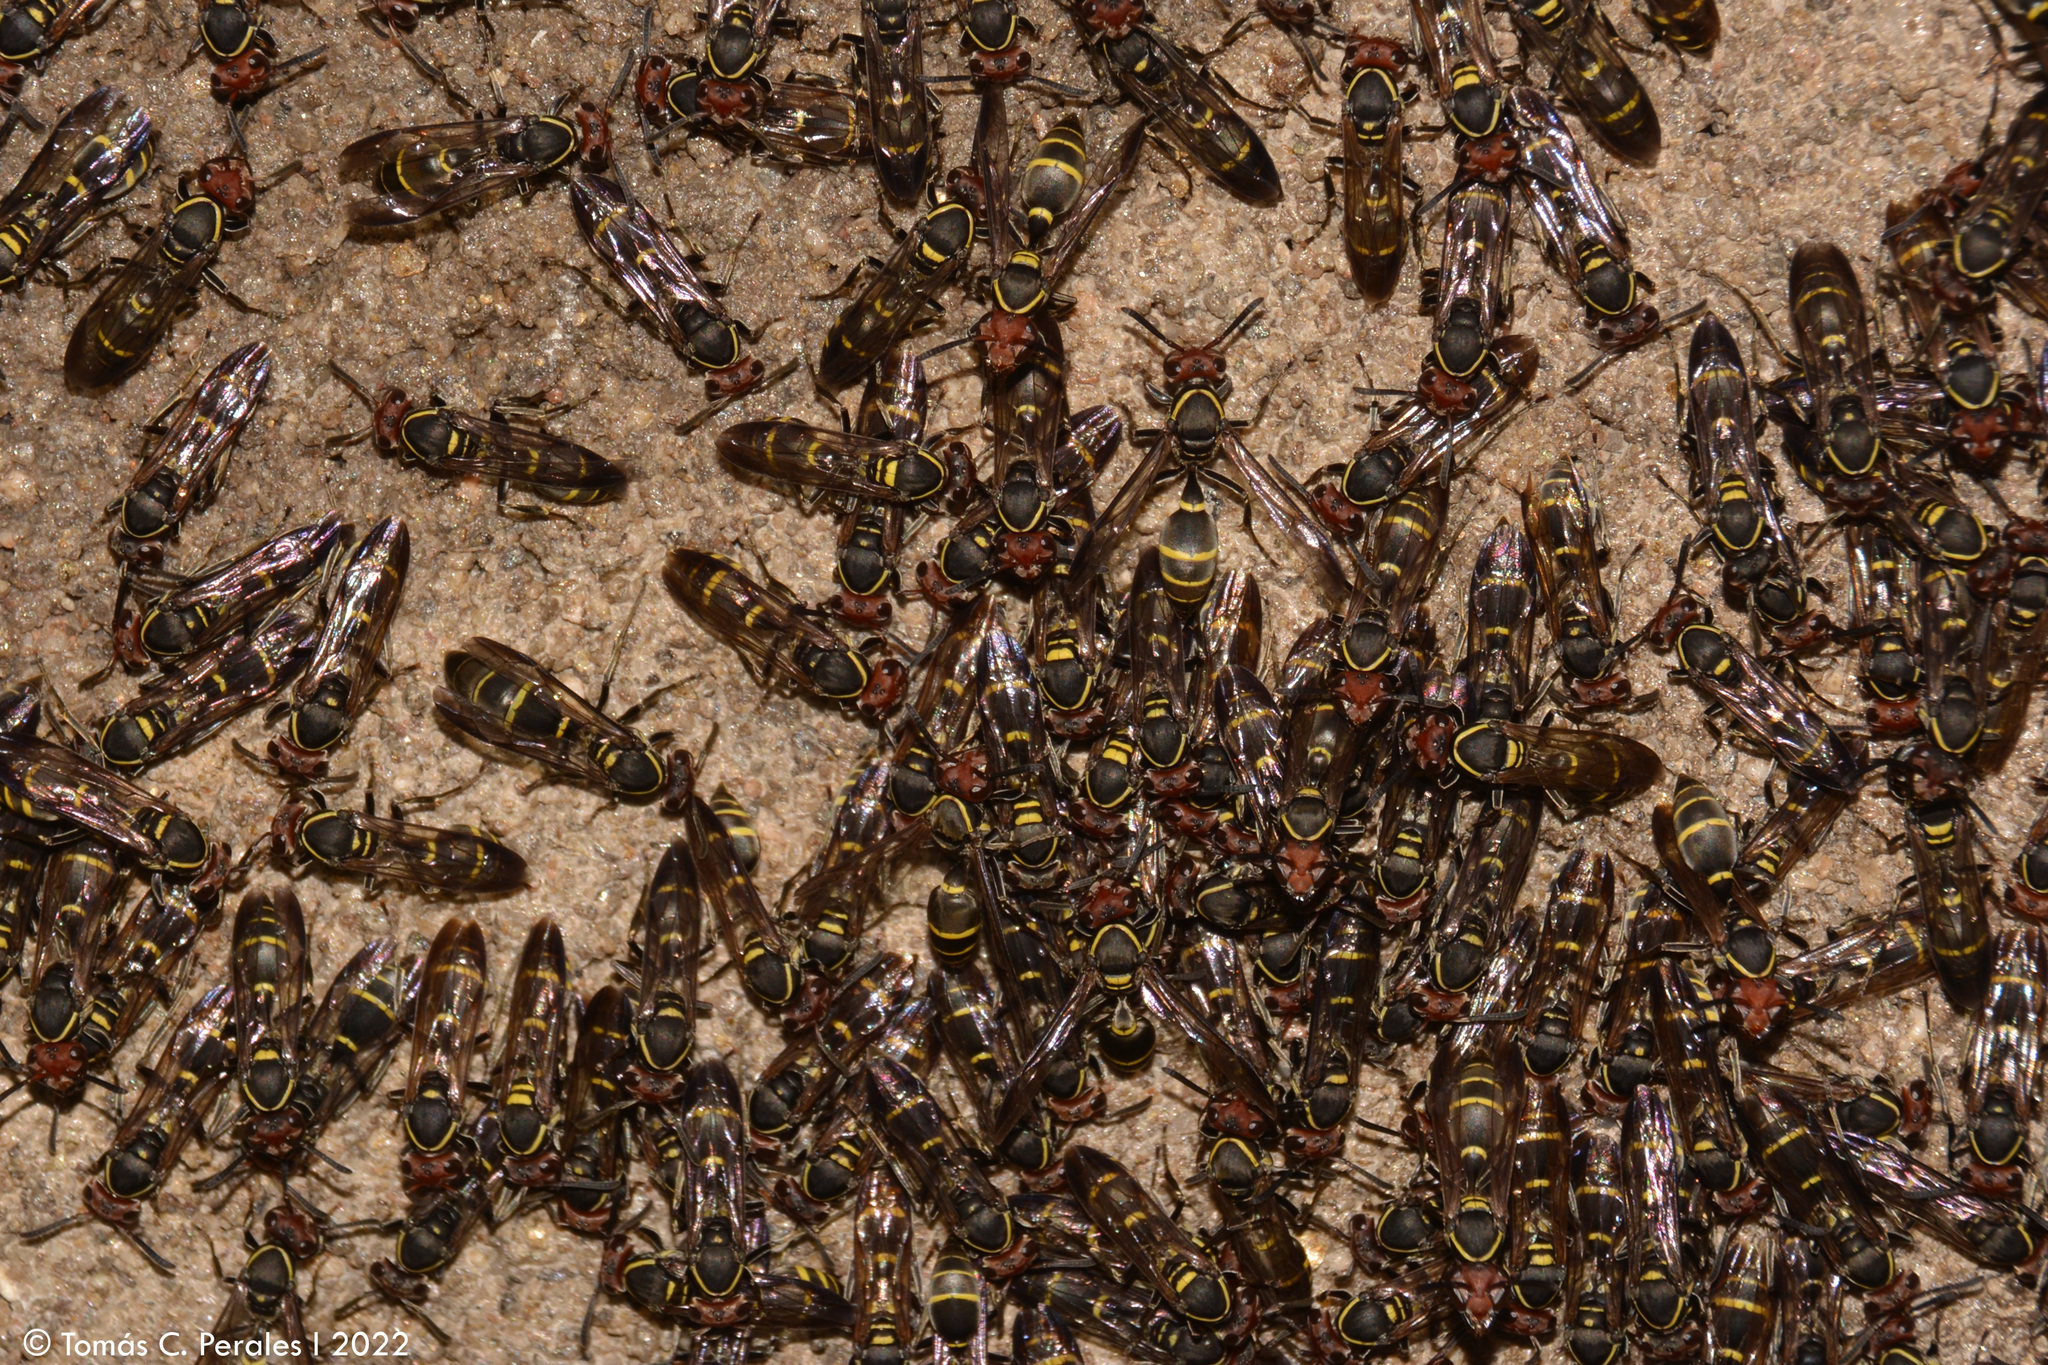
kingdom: Animalia
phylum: Arthropoda
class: Insecta
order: Hymenoptera
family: Eumenidae
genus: Polybia
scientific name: Polybia ruficeps
